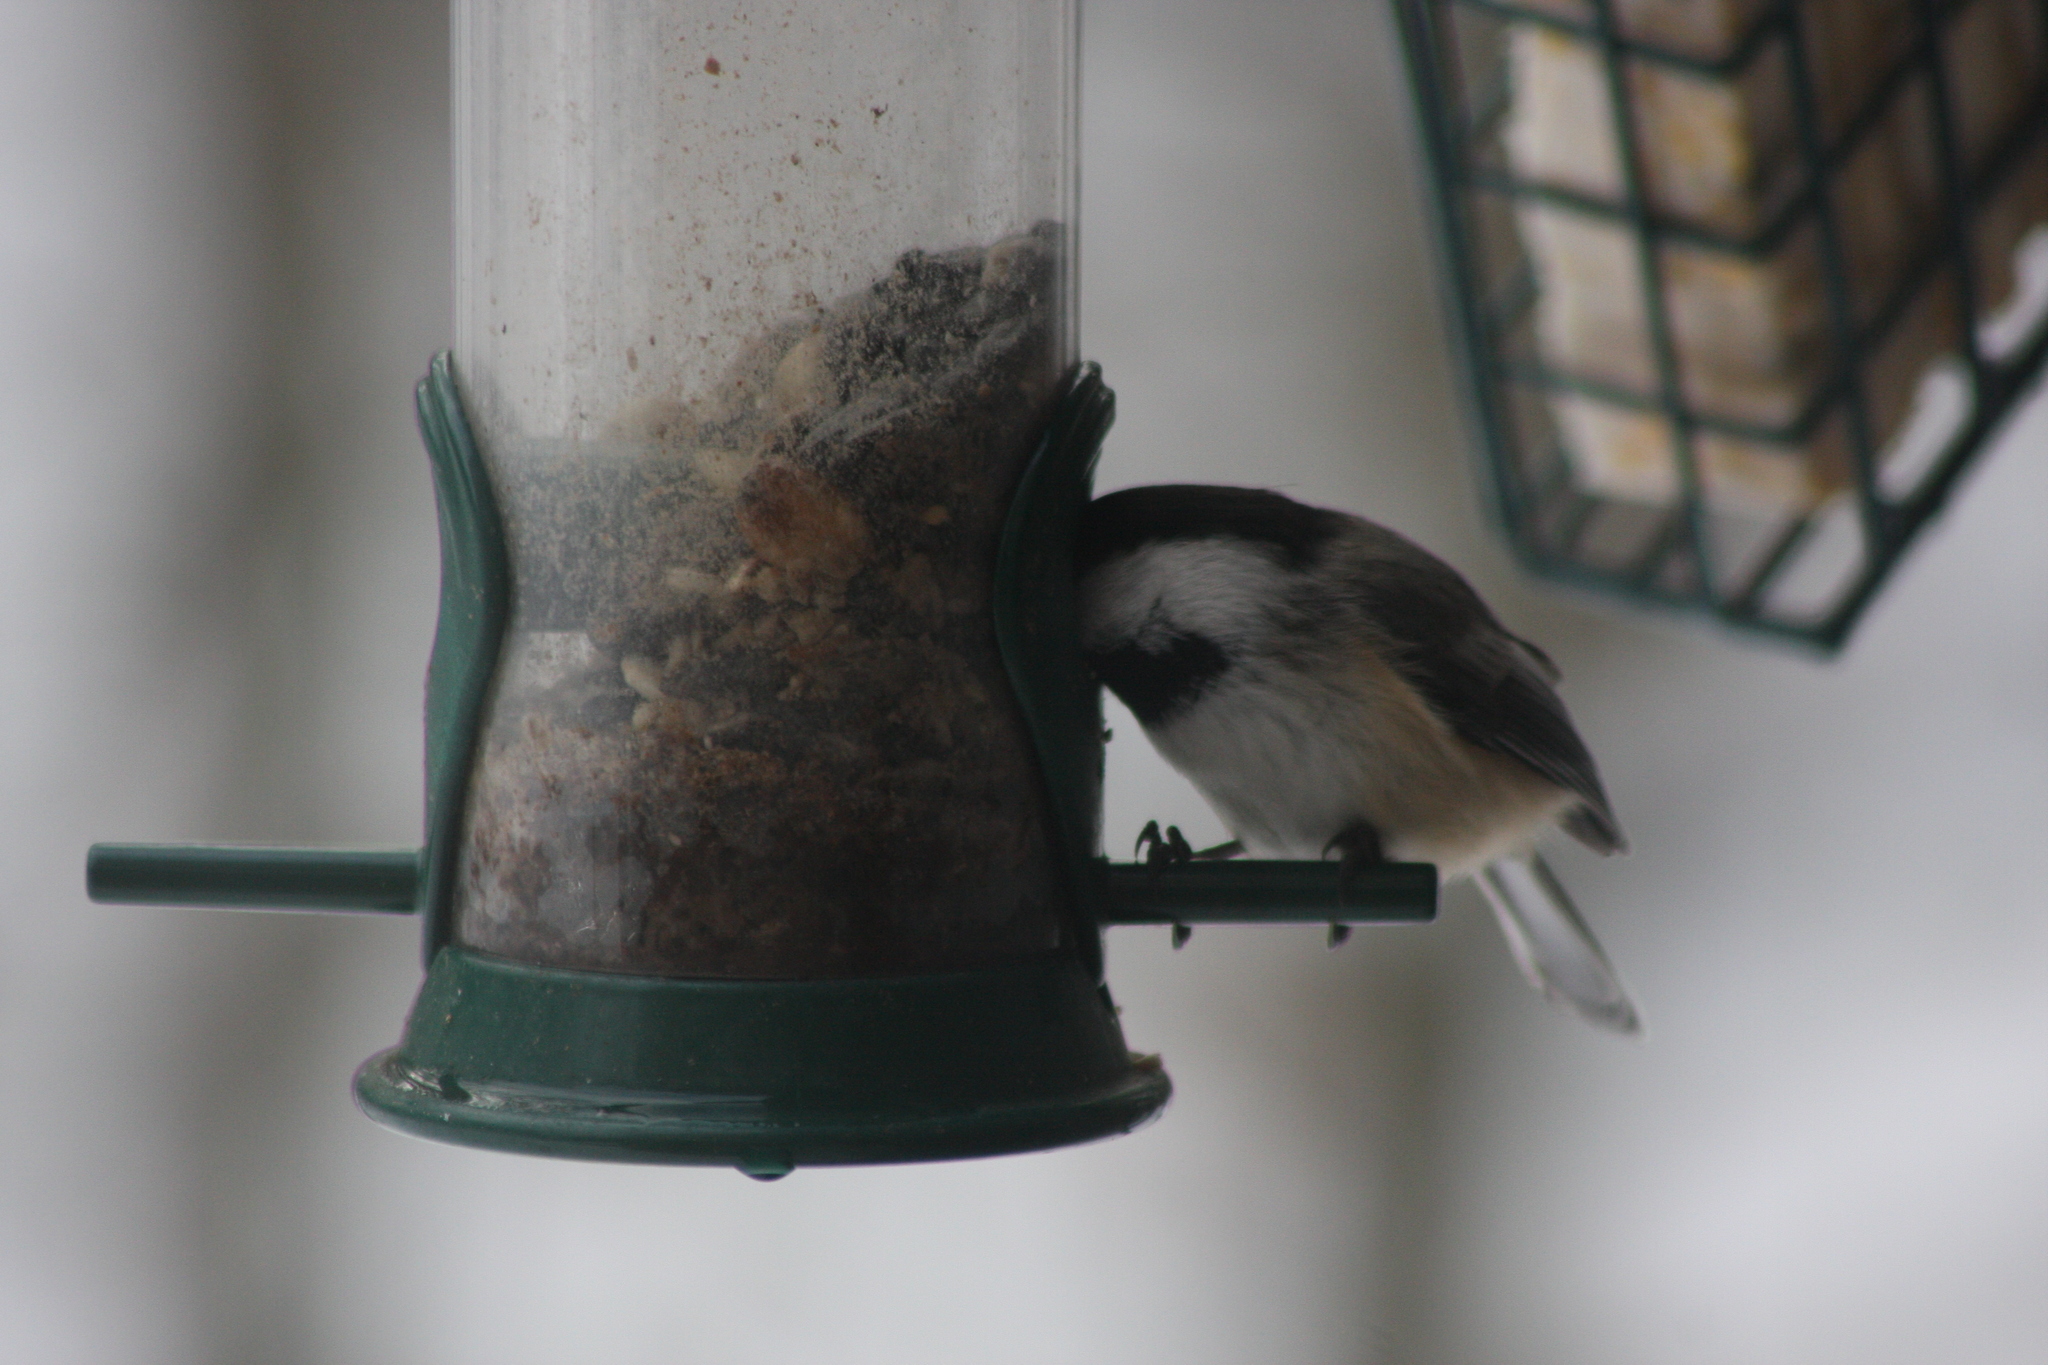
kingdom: Animalia
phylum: Chordata
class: Aves
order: Passeriformes
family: Paridae
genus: Poecile
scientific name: Poecile atricapillus
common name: Black-capped chickadee
